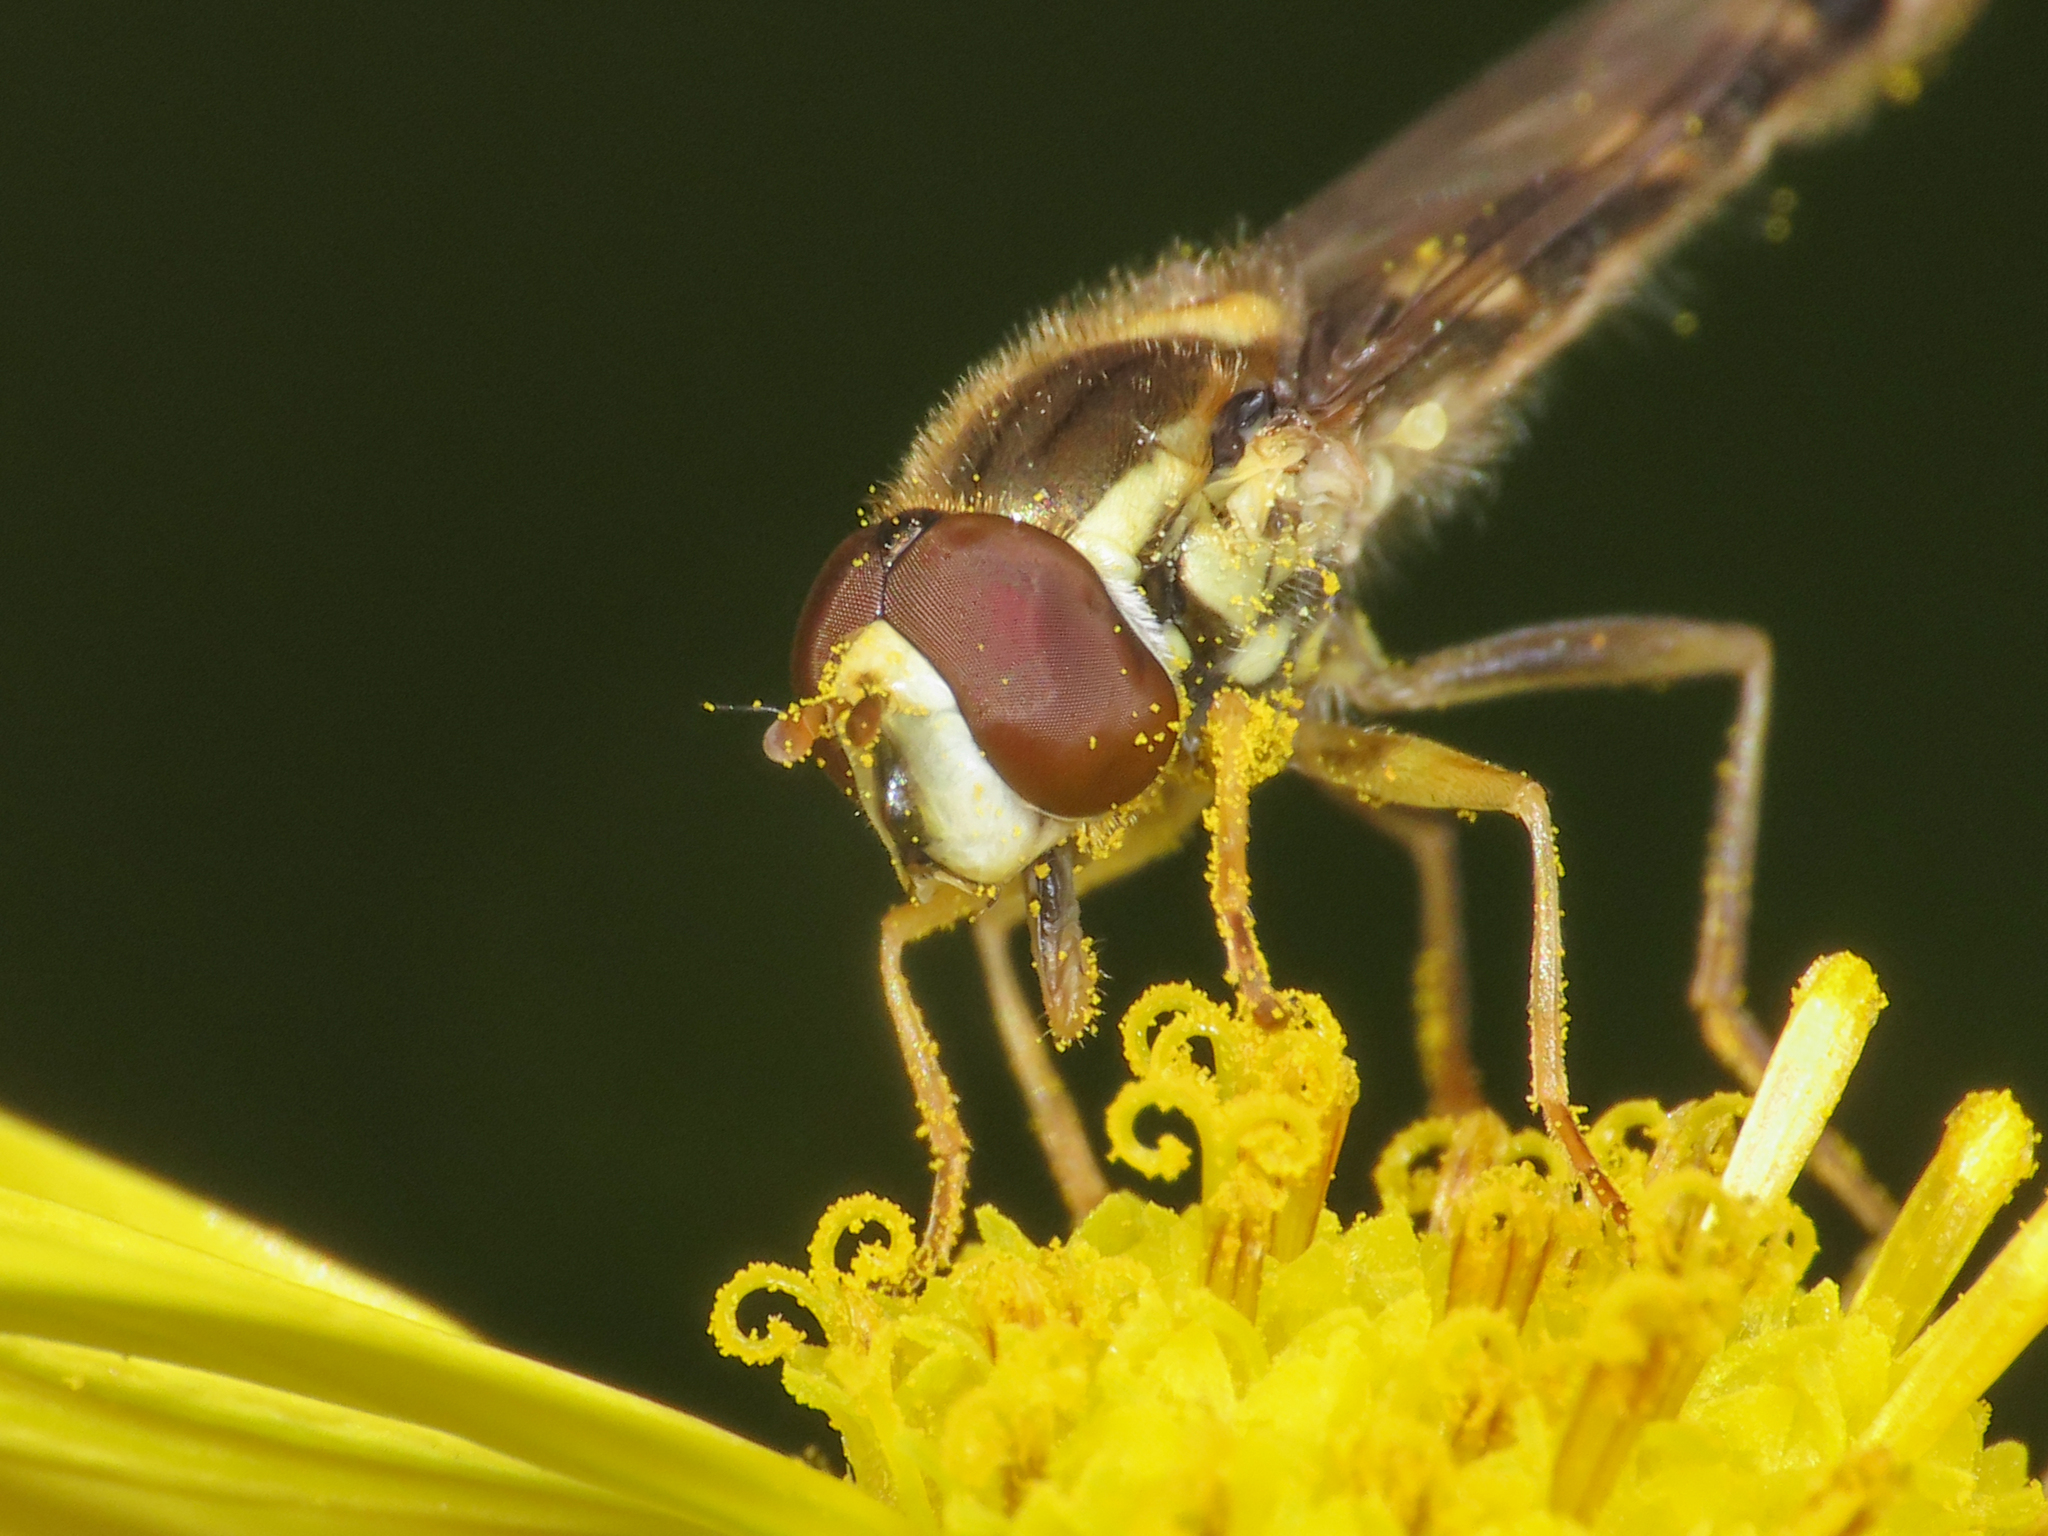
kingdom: Animalia
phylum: Arthropoda
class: Insecta
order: Diptera
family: Syrphidae
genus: Sphaerophoria
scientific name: Sphaerophoria scripta
